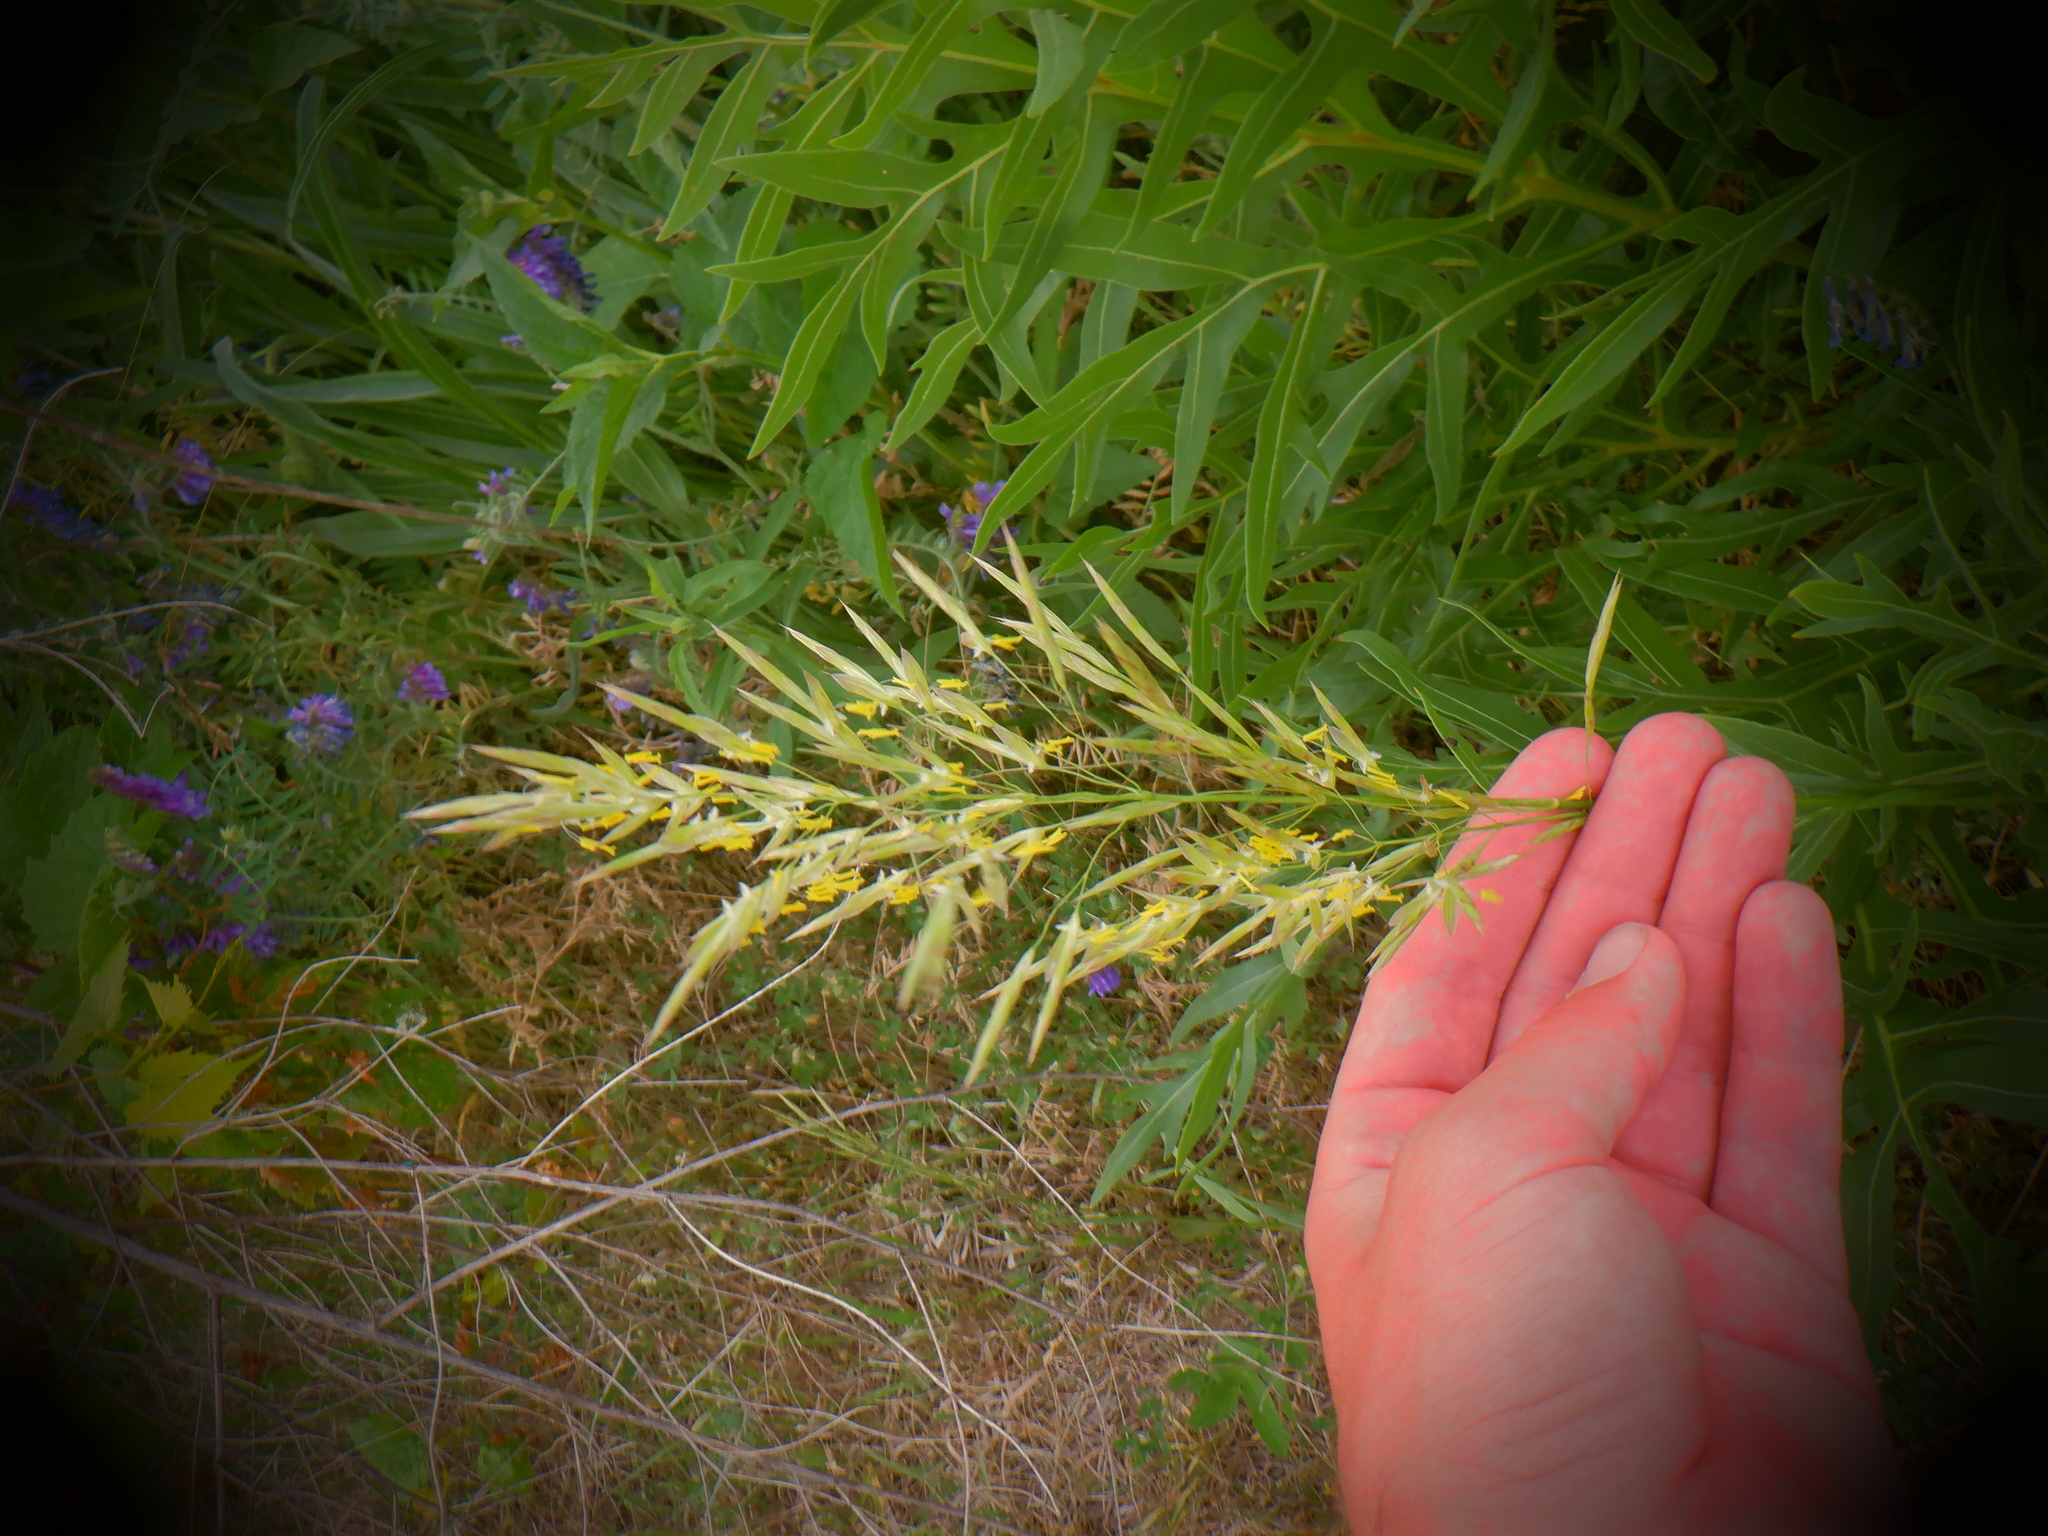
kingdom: Plantae
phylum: Tracheophyta
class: Liliopsida
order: Poales
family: Poaceae
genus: Bromus
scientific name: Bromus inermis
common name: Smooth brome
